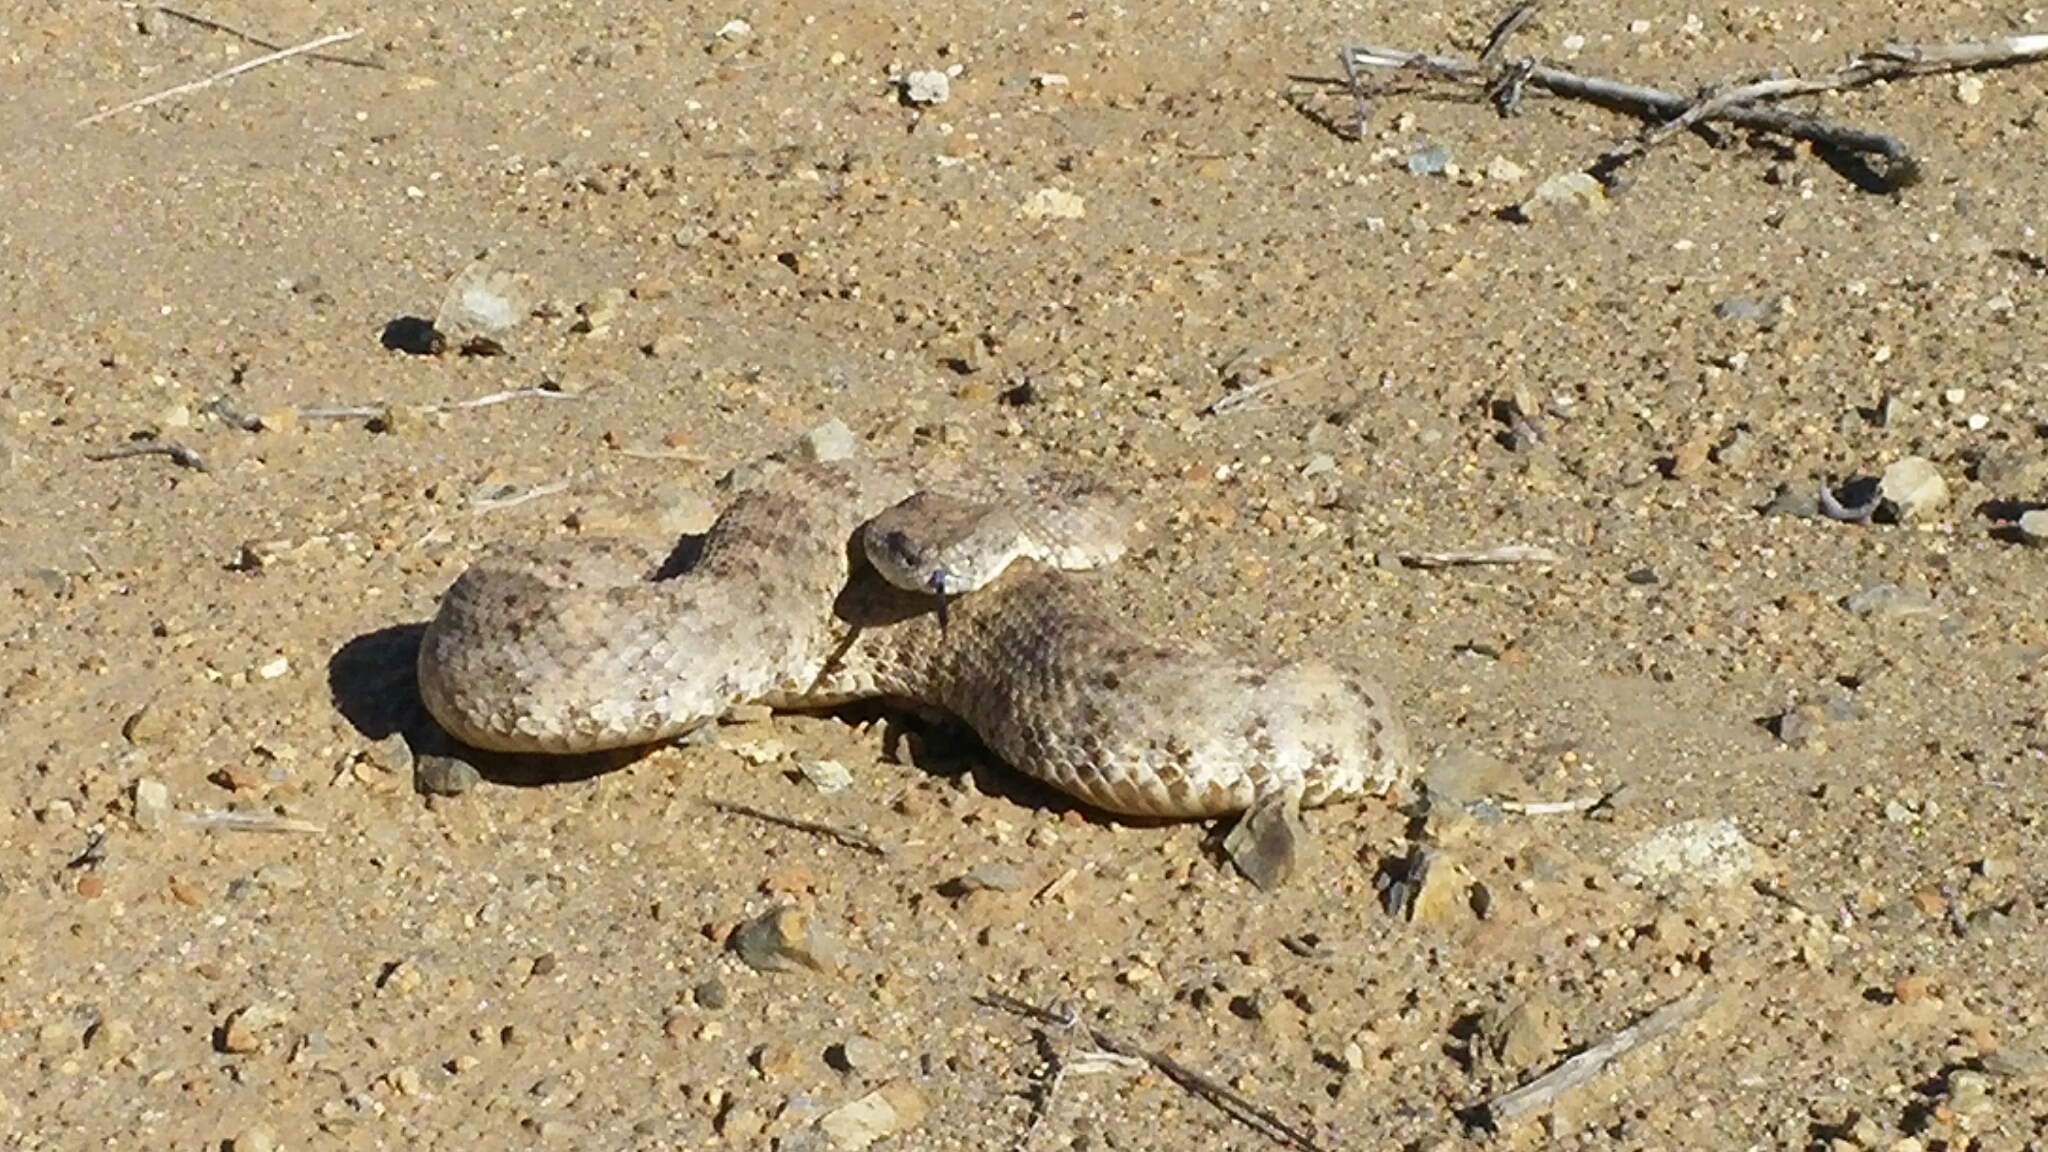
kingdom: Animalia
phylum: Chordata
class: Squamata
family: Viperidae
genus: Crotalus
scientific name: Crotalus pyrrhus
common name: Southwestern speckled rattlesnake
